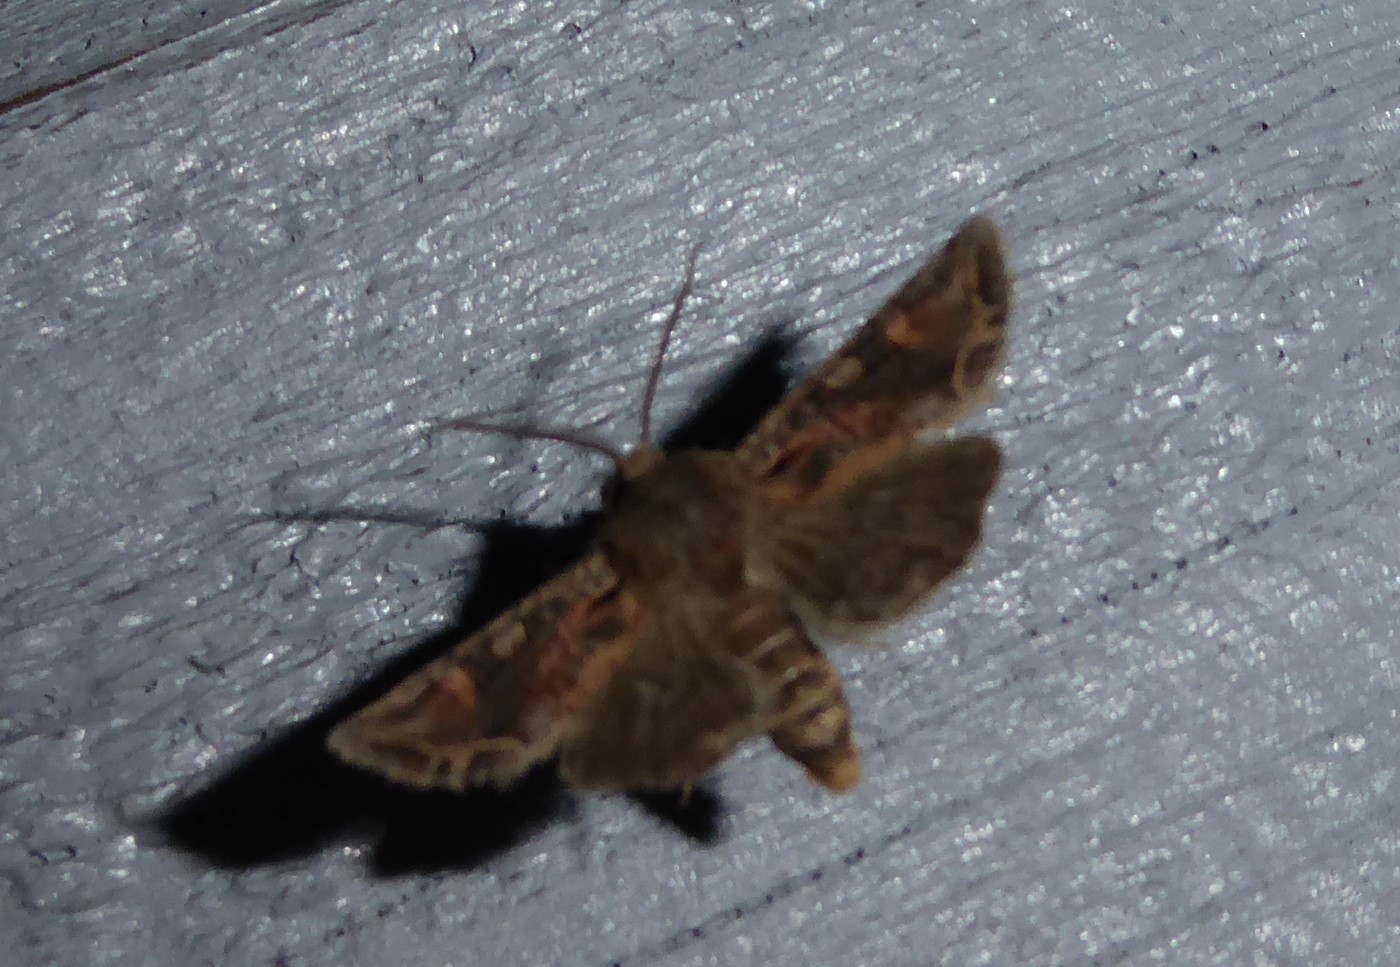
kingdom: Animalia
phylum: Arthropoda
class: Insecta
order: Lepidoptera
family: Noctuidae
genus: Ichneutica
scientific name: Ichneutica
